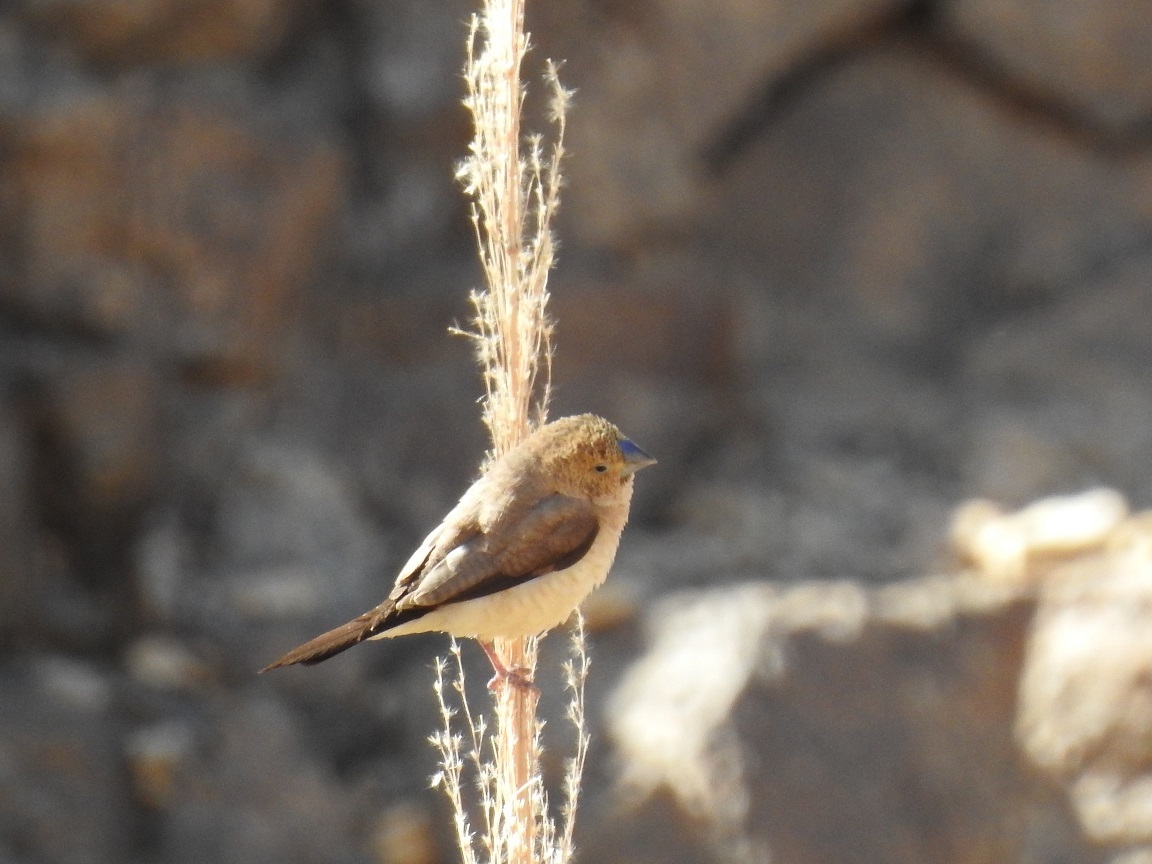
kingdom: Animalia
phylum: Chordata
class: Aves
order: Passeriformes
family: Estrildidae
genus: Euodice
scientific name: Euodice cantans
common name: African silverbill
